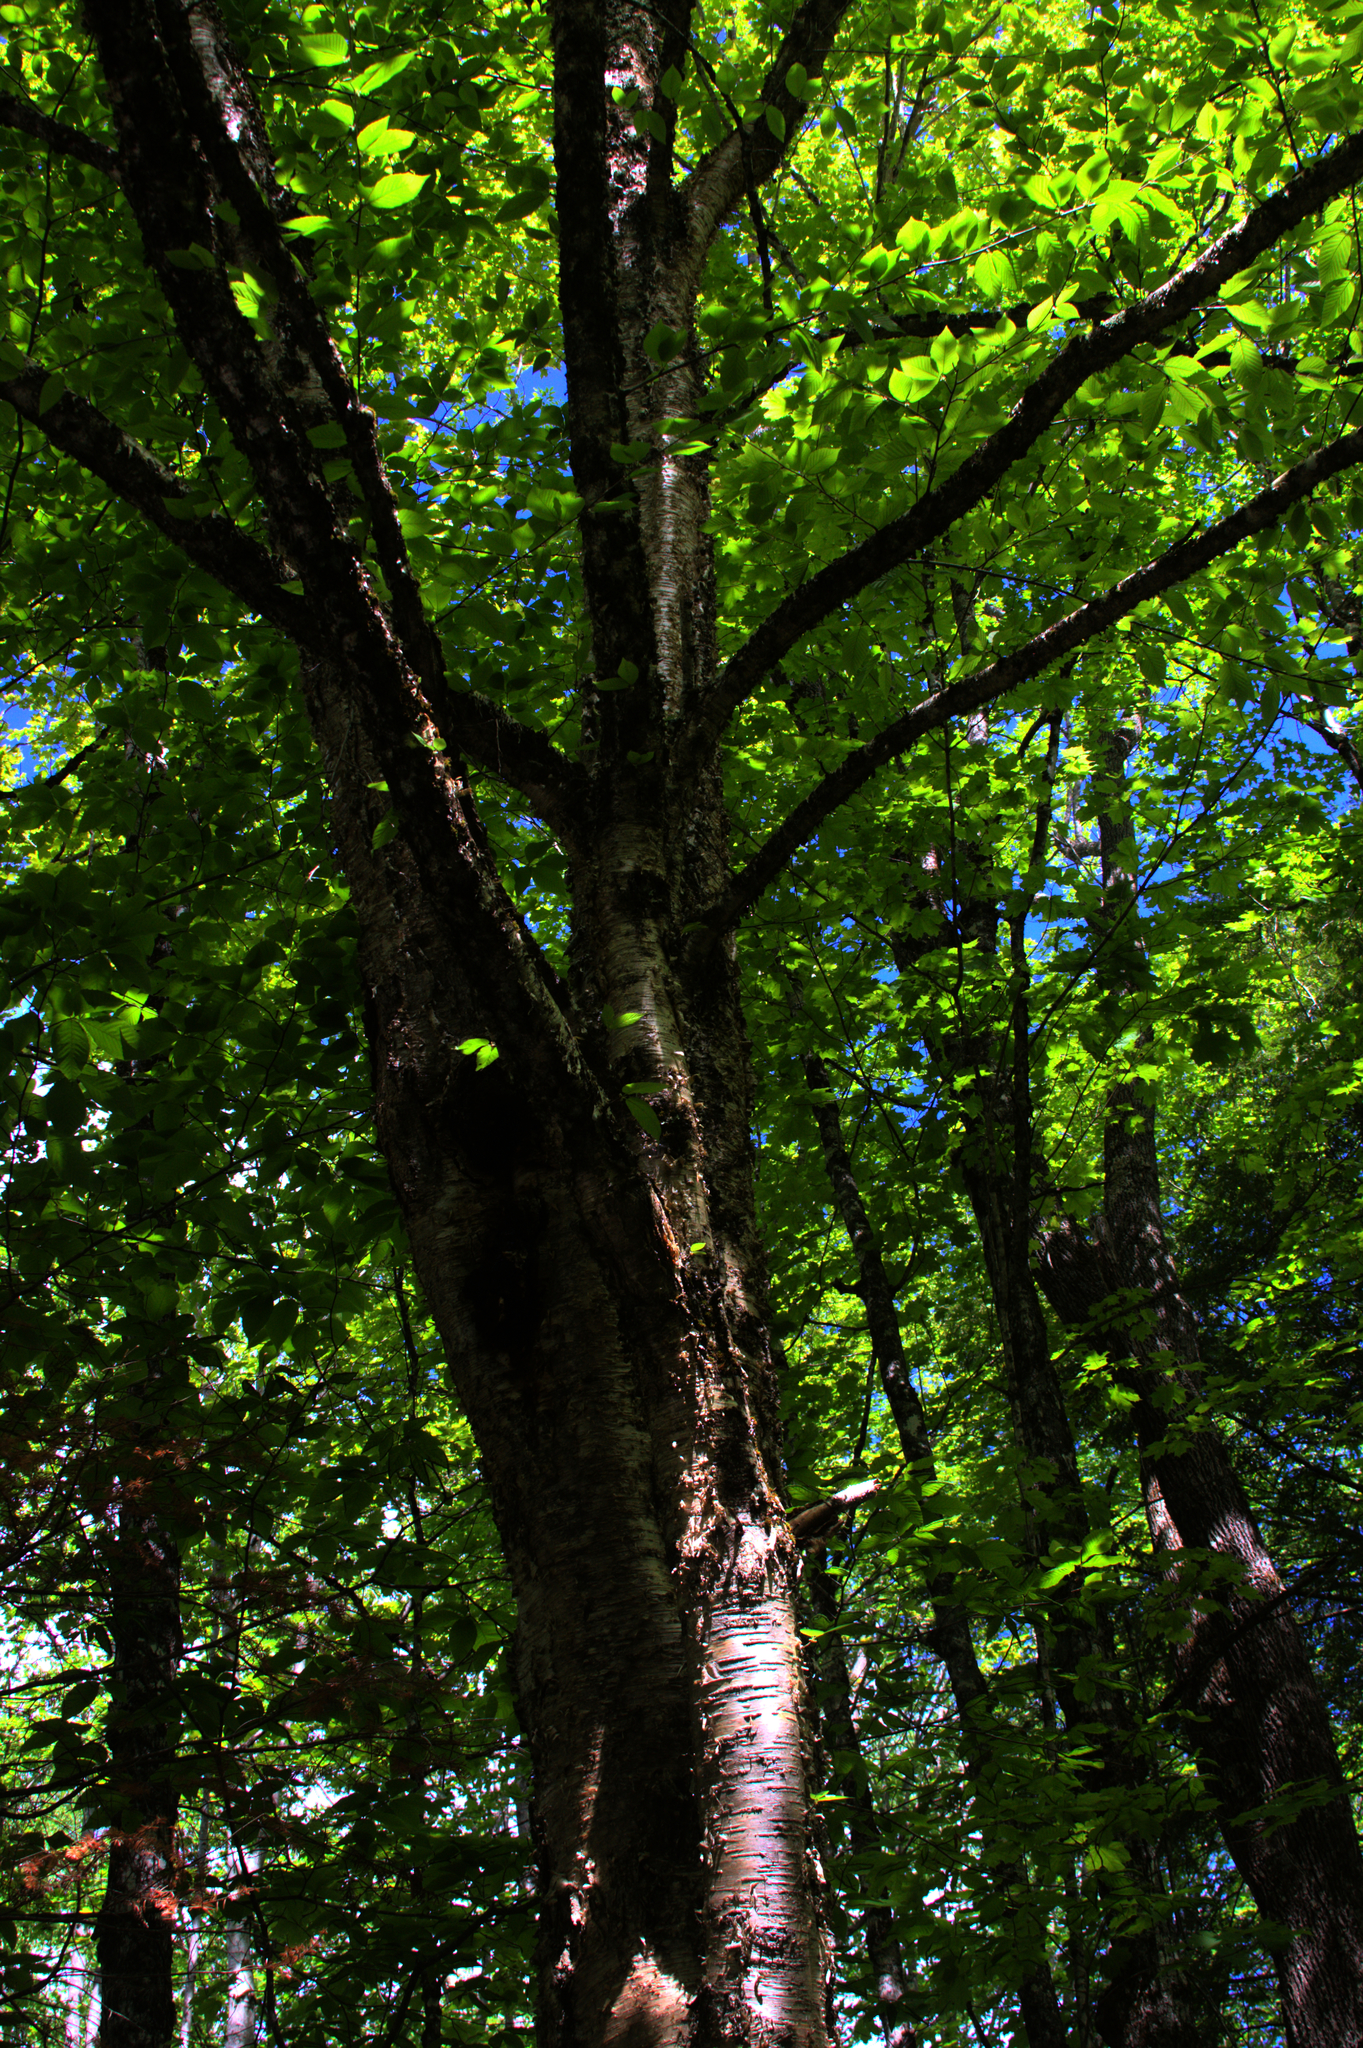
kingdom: Plantae
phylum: Tracheophyta
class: Magnoliopsida
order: Fagales
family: Betulaceae
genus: Betula
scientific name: Betula alleghaniensis
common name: Yellow birch
